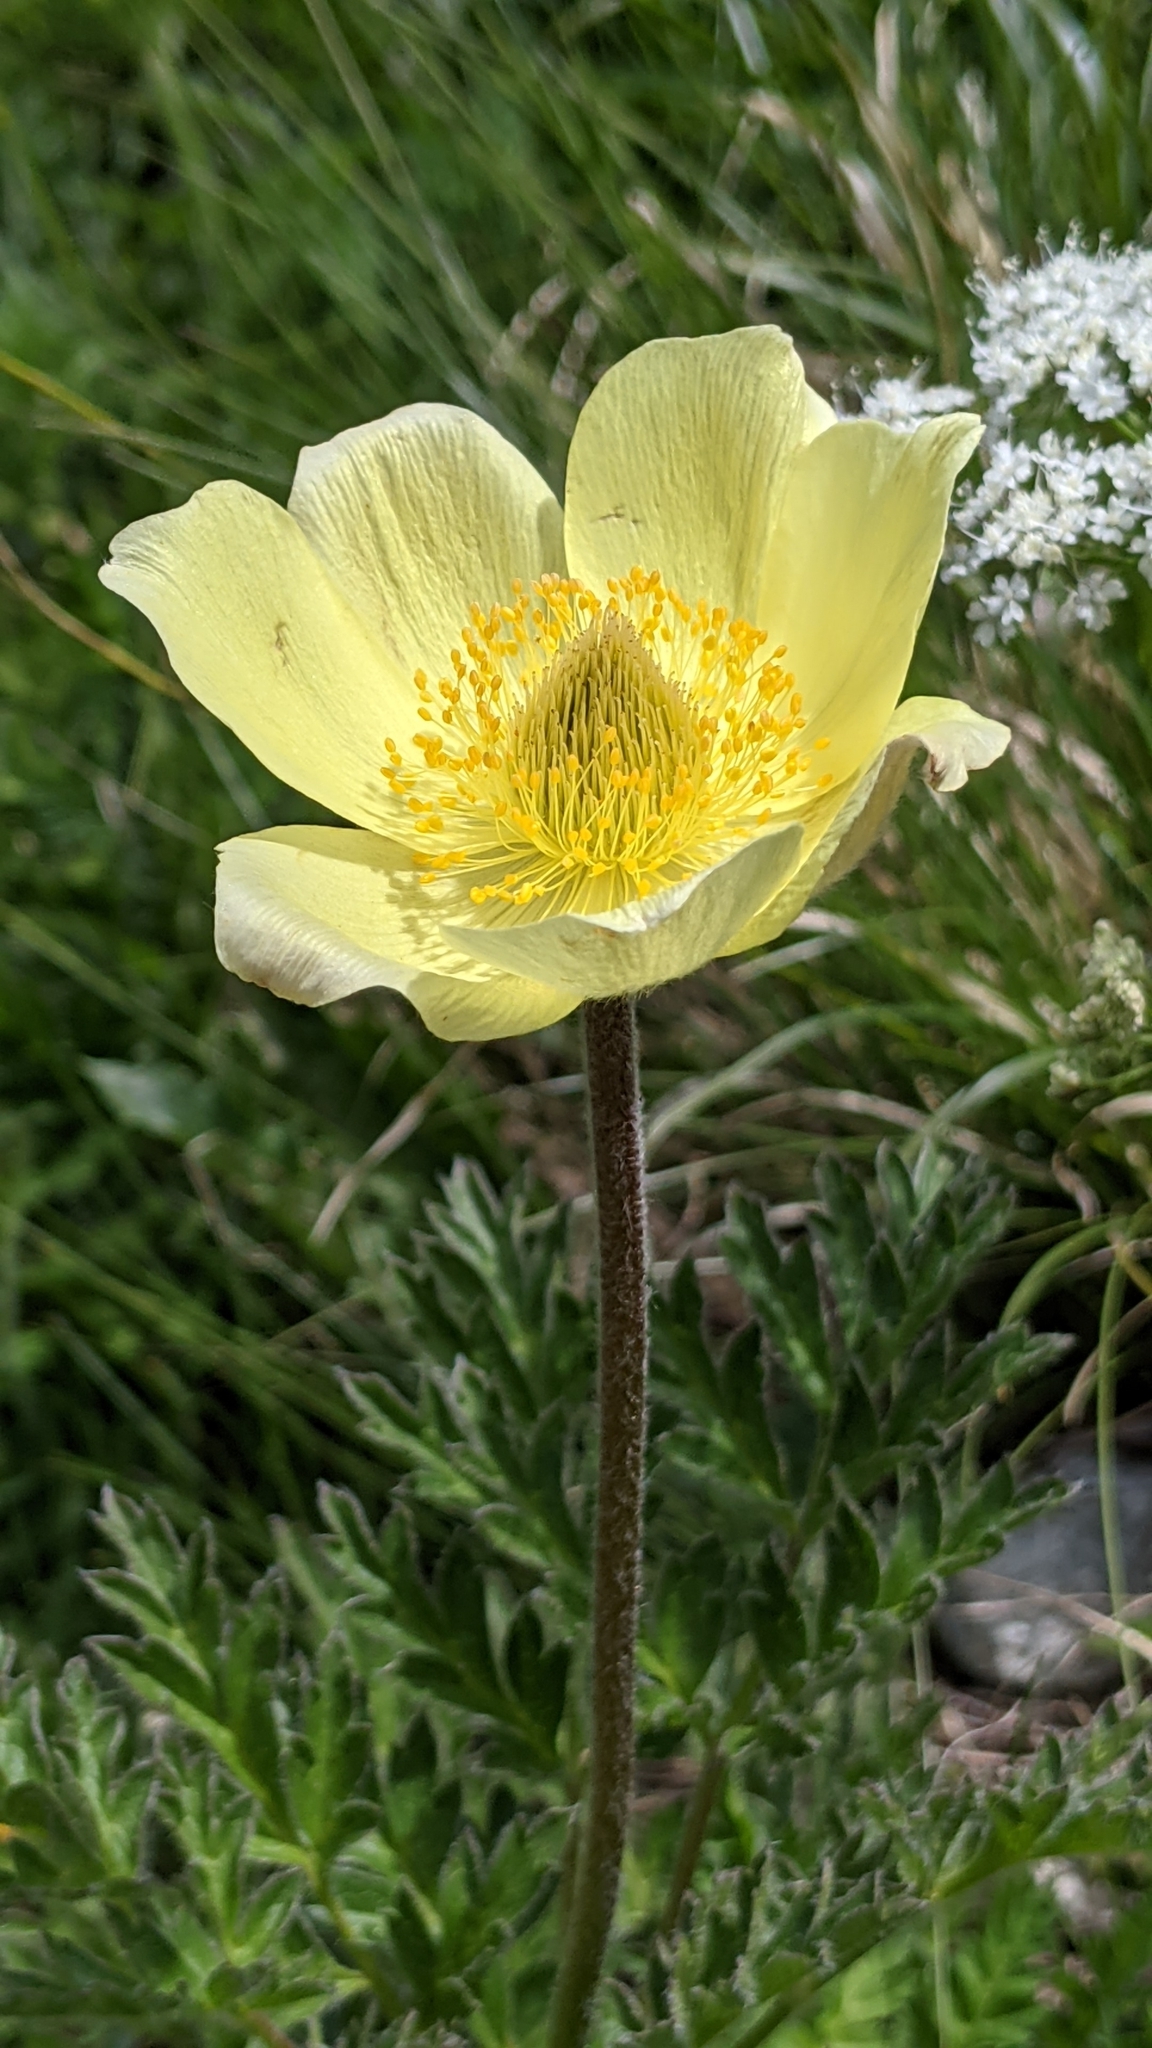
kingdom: Plantae
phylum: Tracheophyta
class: Magnoliopsida
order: Ranunculales
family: Ranunculaceae
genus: Pulsatilla
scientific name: Pulsatilla alpina
